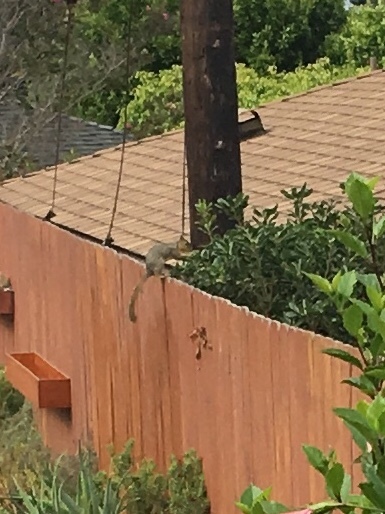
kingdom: Animalia
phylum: Chordata
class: Mammalia
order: Rodentia
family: Sciuridae
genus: Sciurus
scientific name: Sciurus niger
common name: Fox squirrel
